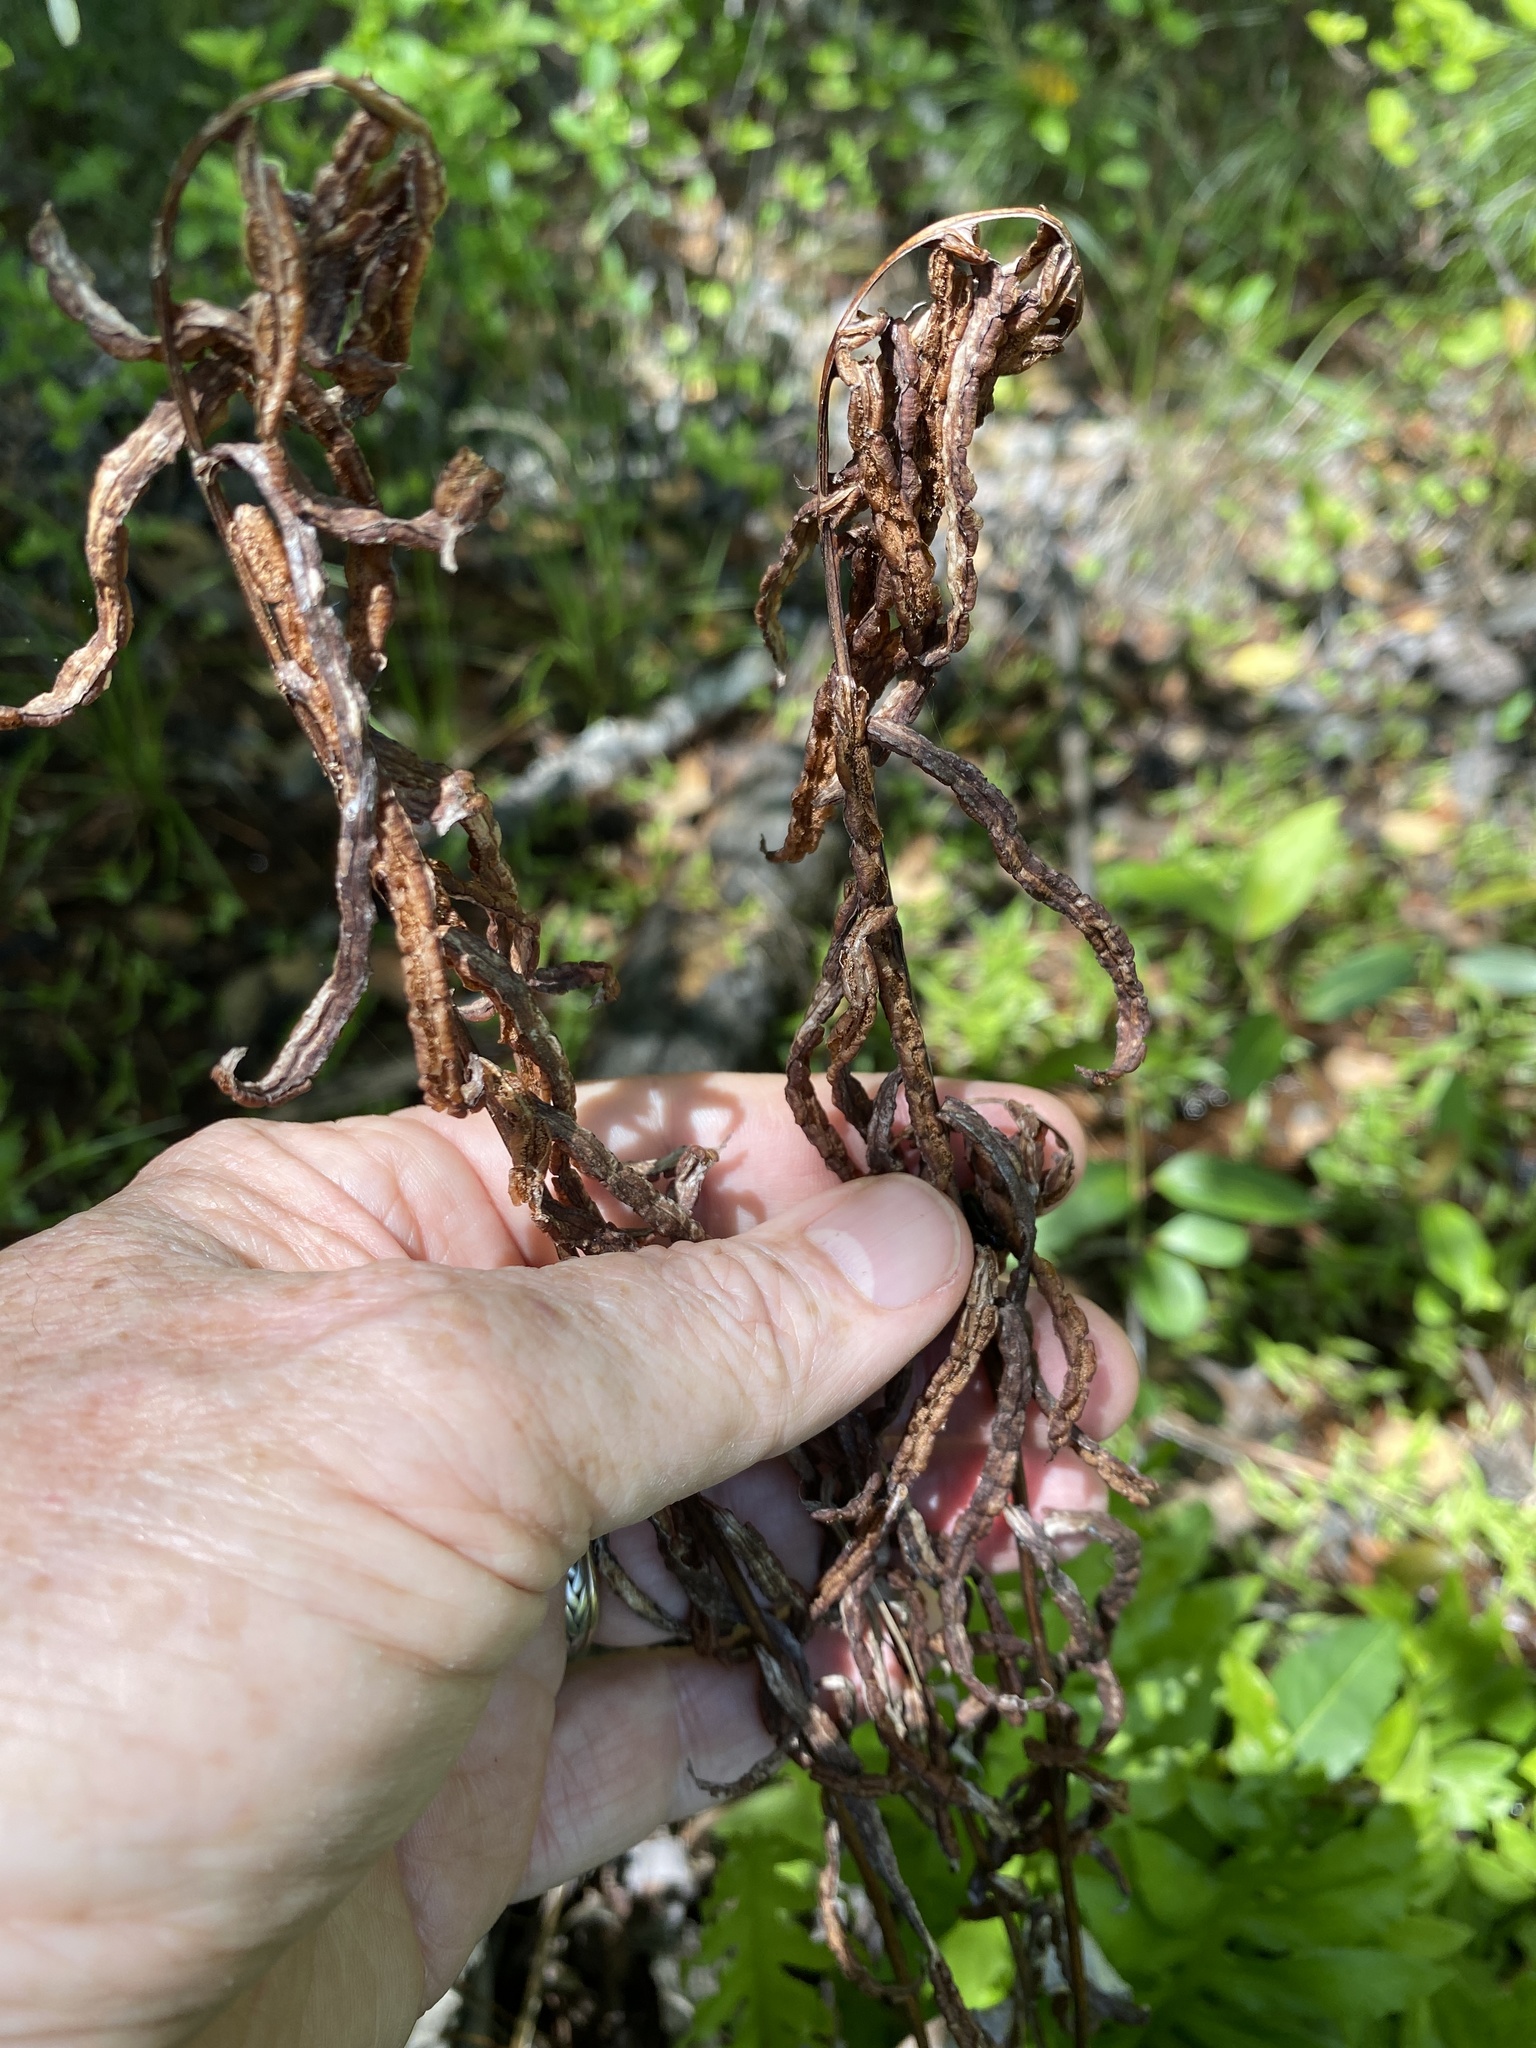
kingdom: Plantae
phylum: Tracheophyta
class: Polypodiopsida
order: Polypodiales
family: Blechnaceae
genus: Lorinseria
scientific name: Lorinseria areolata
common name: Dwarf chain fern
